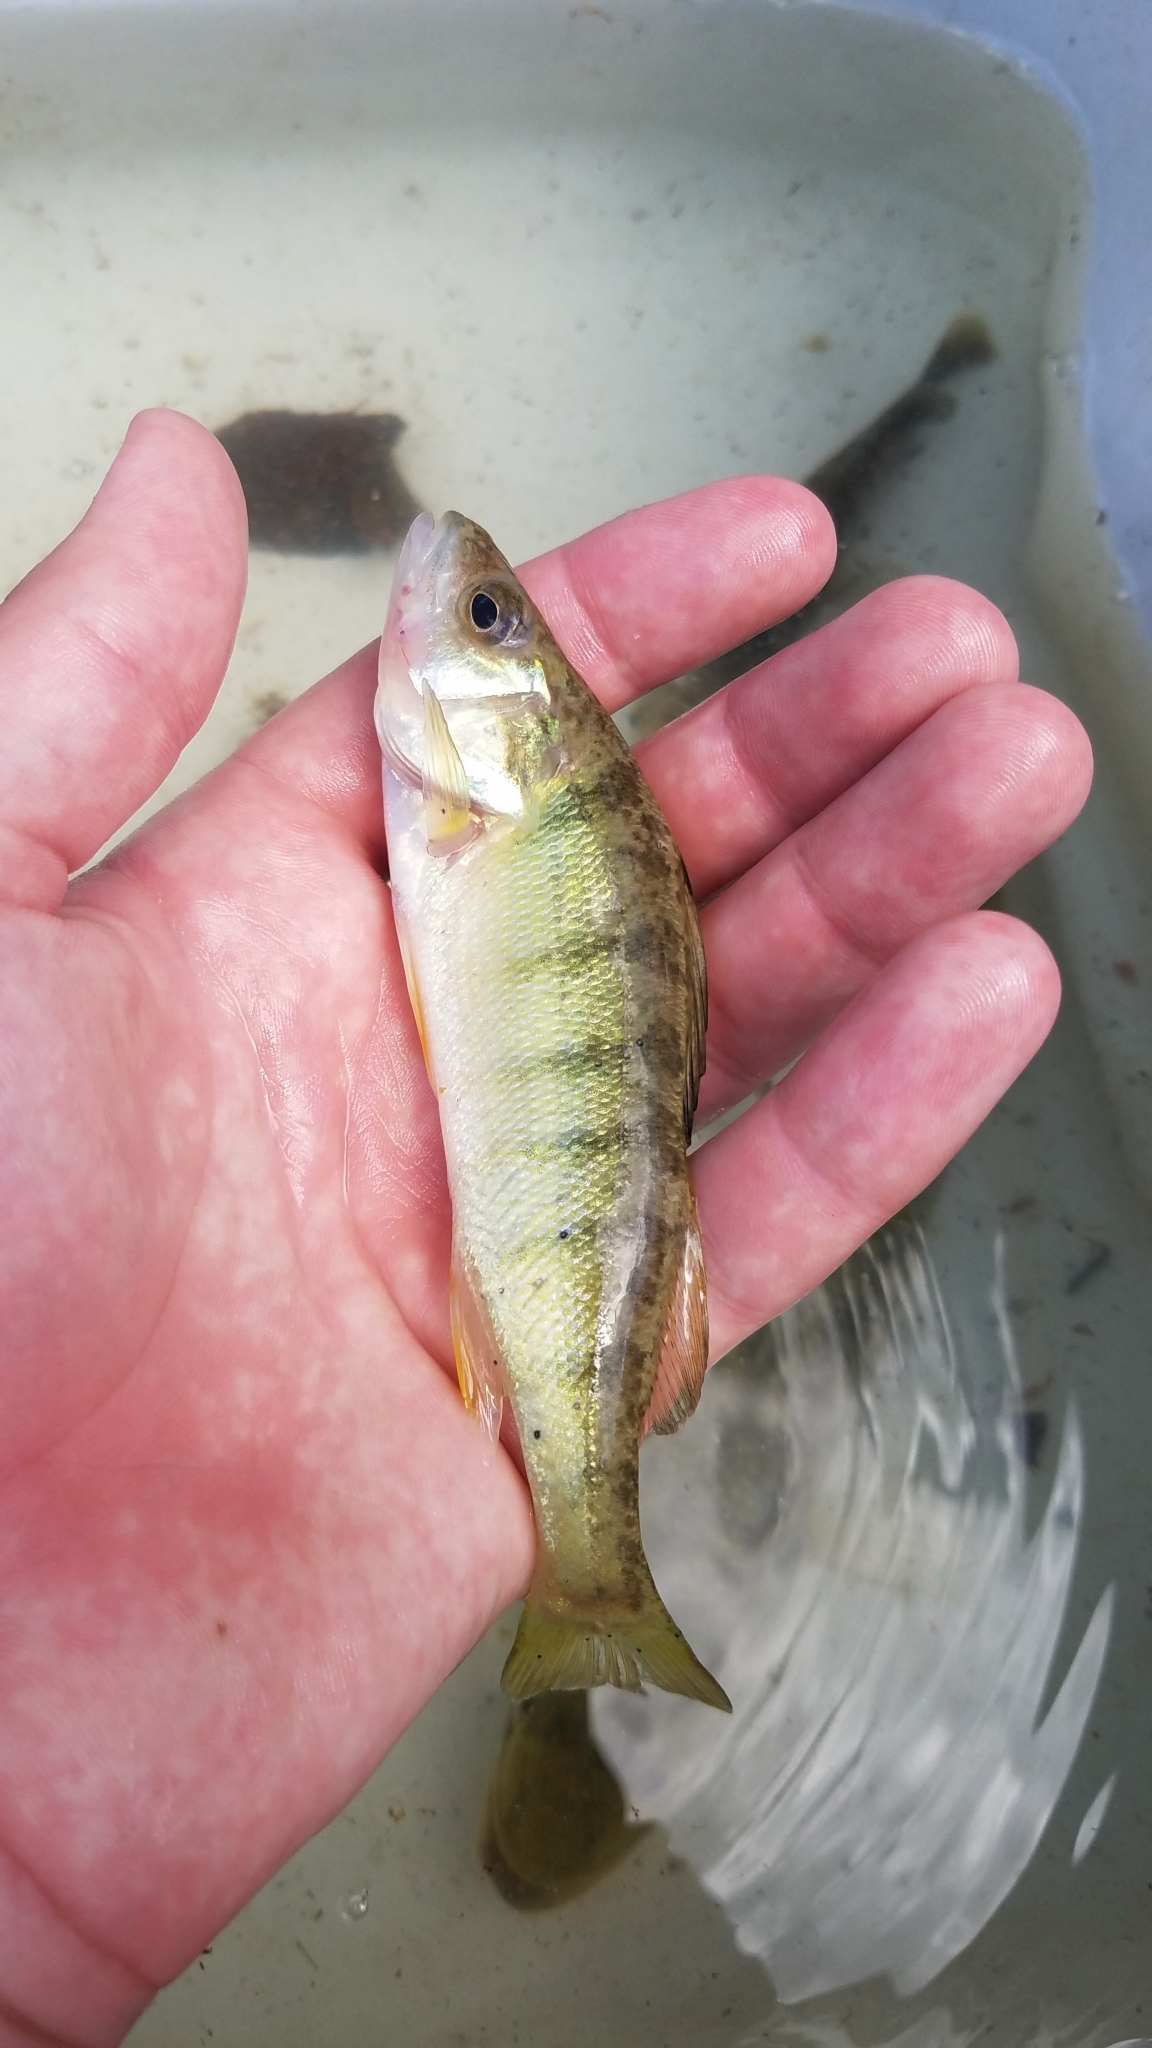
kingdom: Animalia
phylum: Chordata
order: Perciformes
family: Percidae
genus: Perca
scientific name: Perca flavescens
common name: Yellow perch
